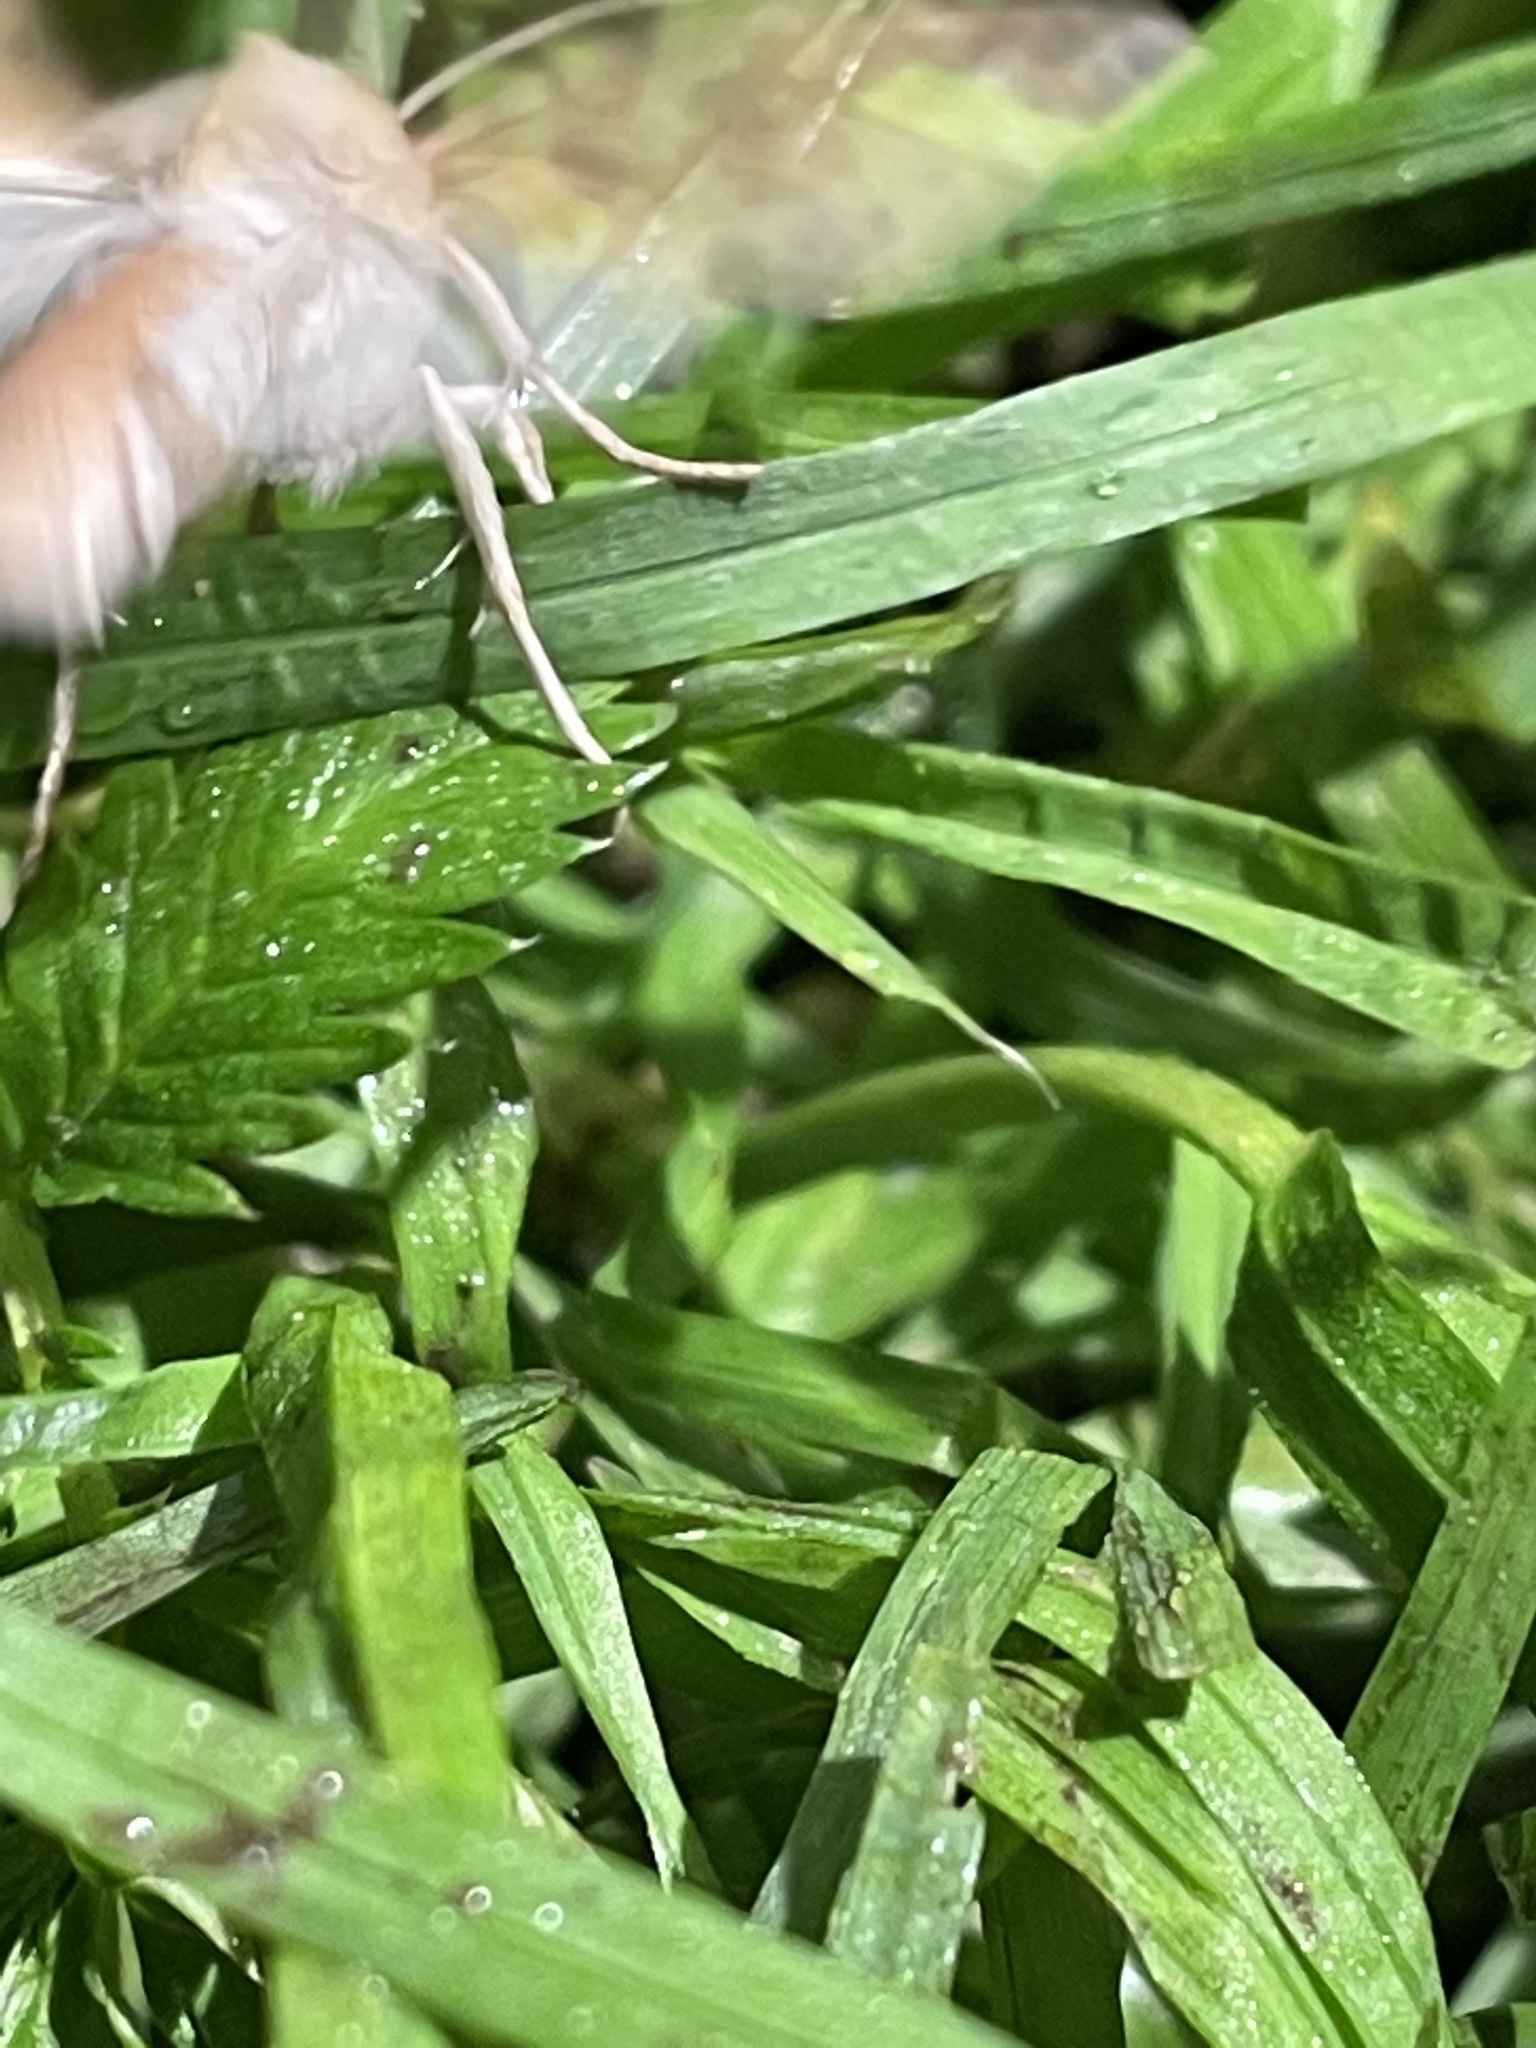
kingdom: Animalia
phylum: Arthropoda
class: Insecta
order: Lepidoptera
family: Noctuidae
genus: Xanthia
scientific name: Xanthia icteritia
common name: The sallow
